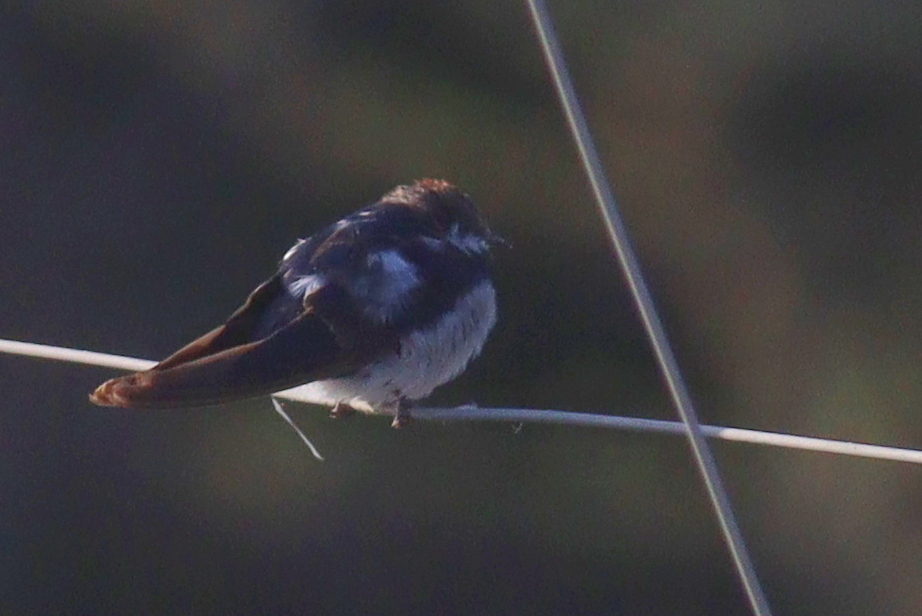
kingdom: Animalia
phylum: Chordata
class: Aves
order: Passeriformes
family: Hirundinidae
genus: Hirundo
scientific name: Hirundo smithii
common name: Wire-tailed swallow
